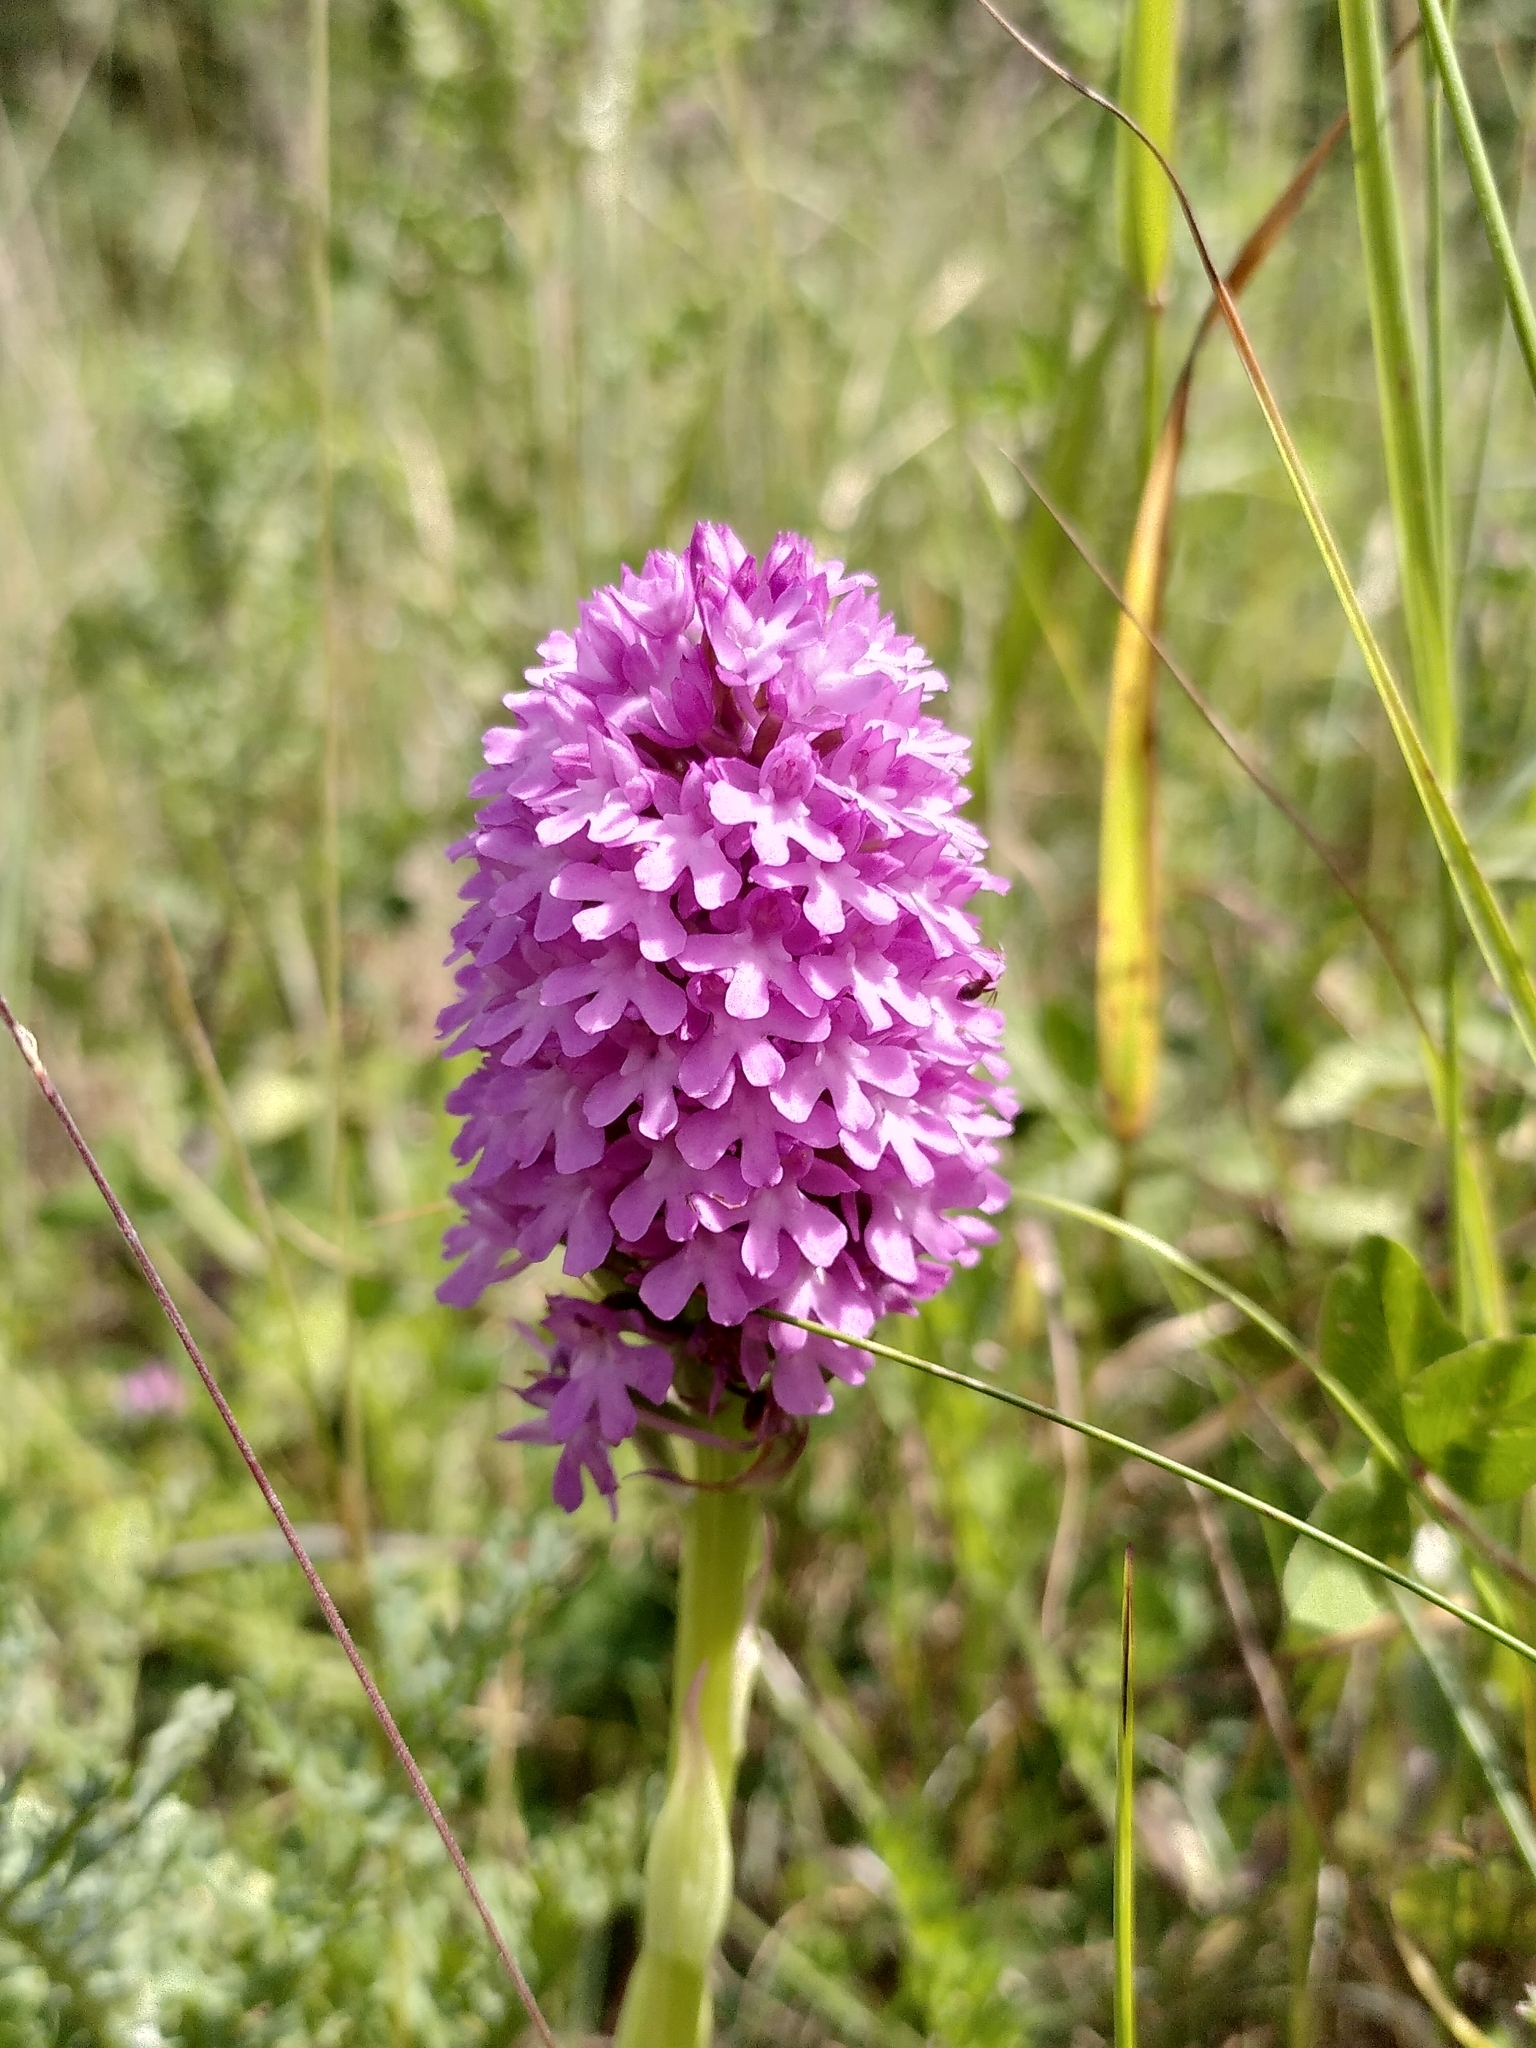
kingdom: Plantae
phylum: Tracheophyta
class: Liliopsida
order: Asparagales
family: Orchidaceae
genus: Anacamptis
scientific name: Anacamptis pyramidalis
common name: Pyramidal orchid
